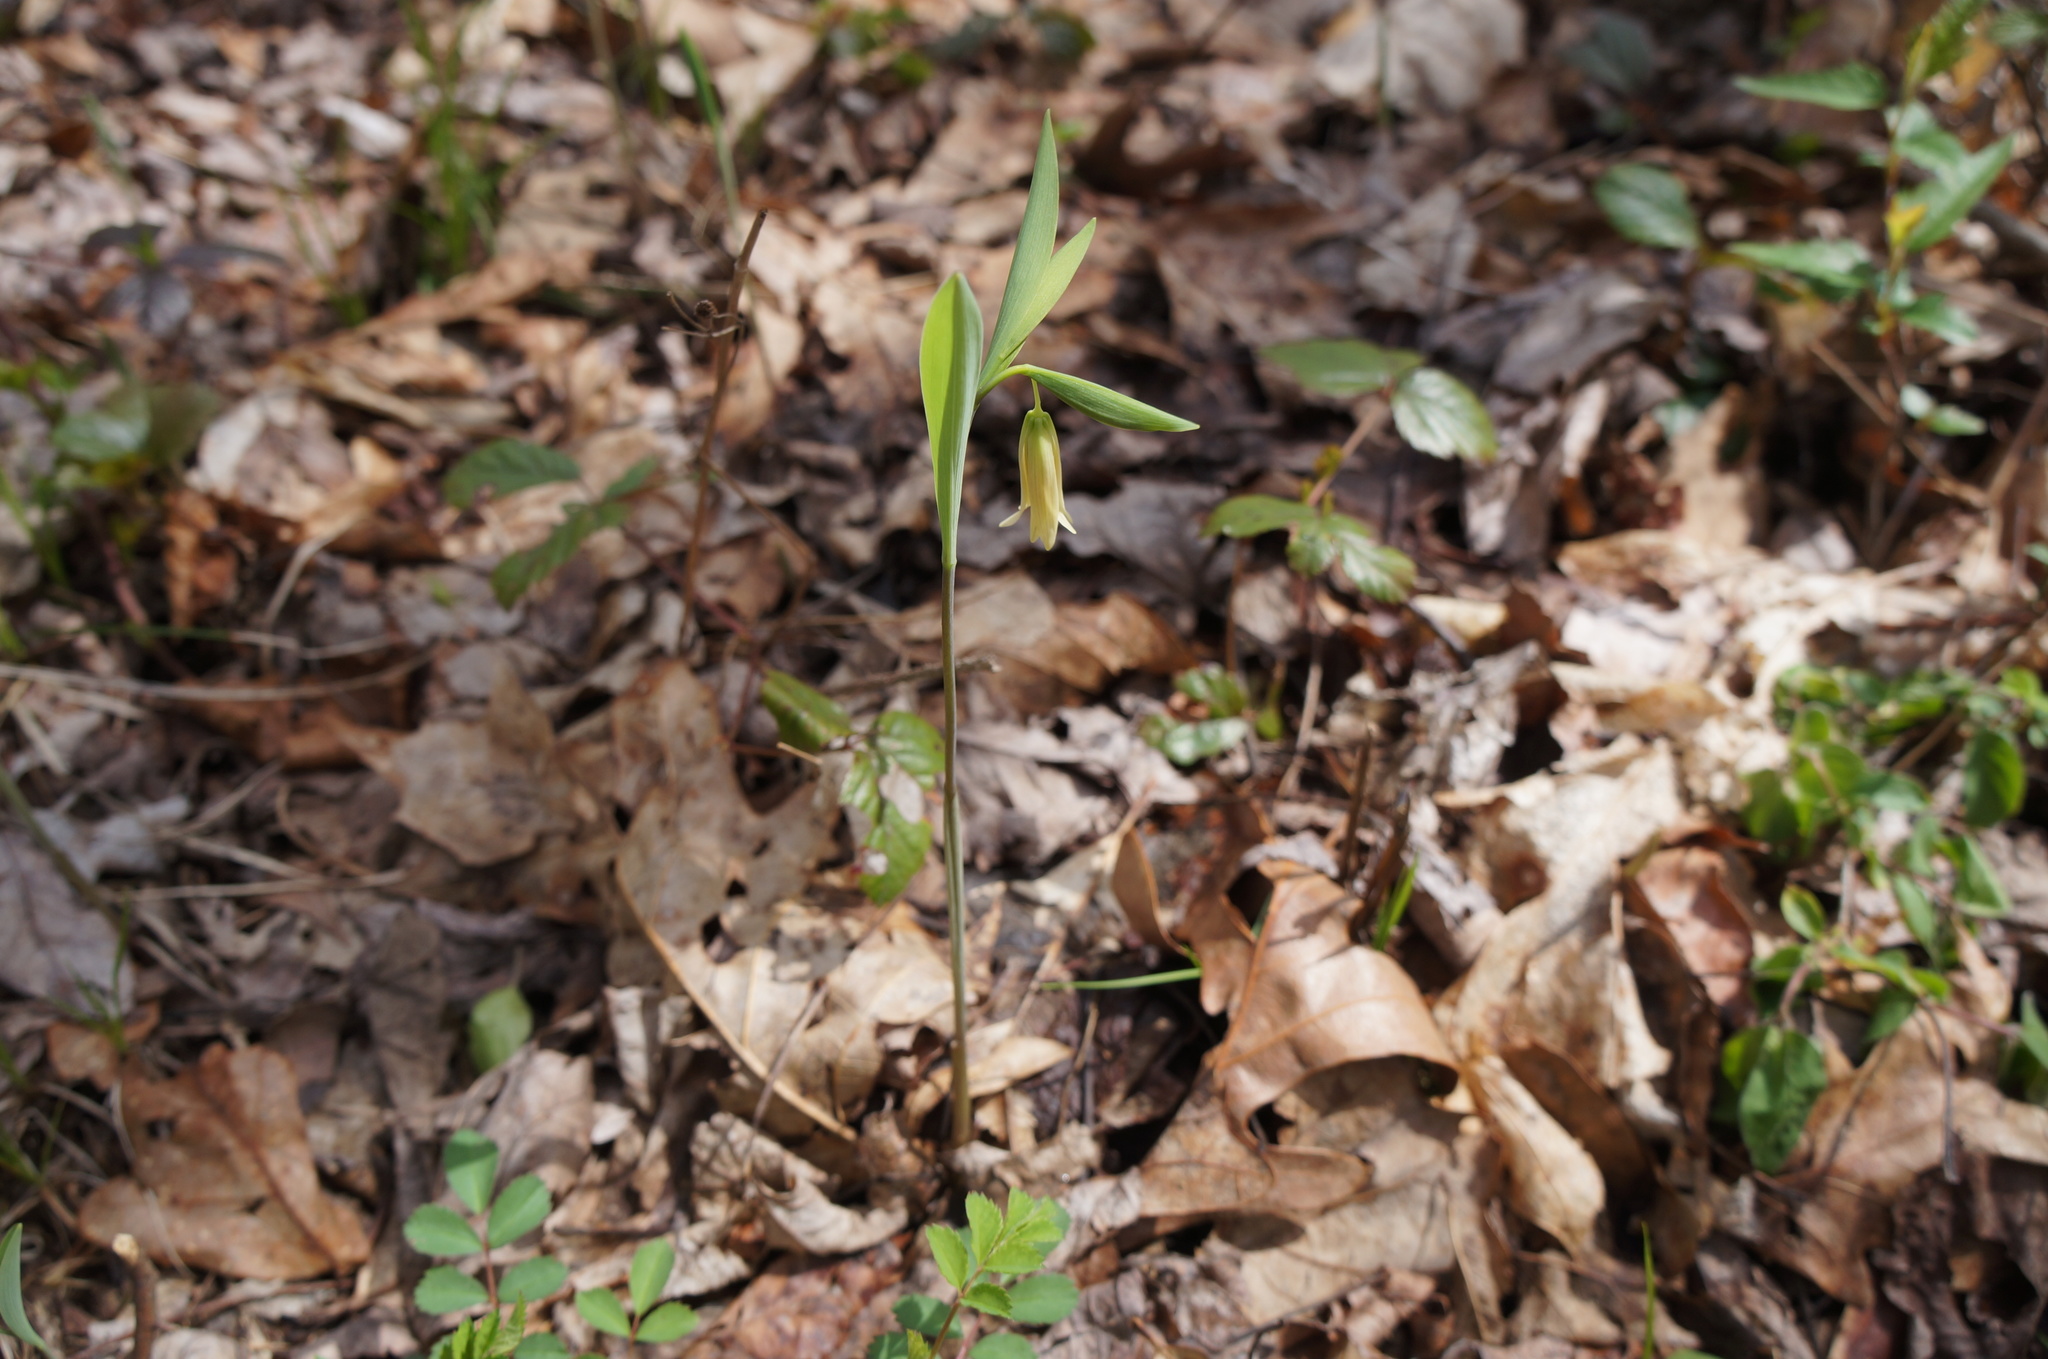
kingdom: Plantae
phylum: Tracheophyta
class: Liliopsida
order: Liliales
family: Colchicaceae
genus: Uvularia
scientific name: Uvularia sessilifolia
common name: Straw-lily
